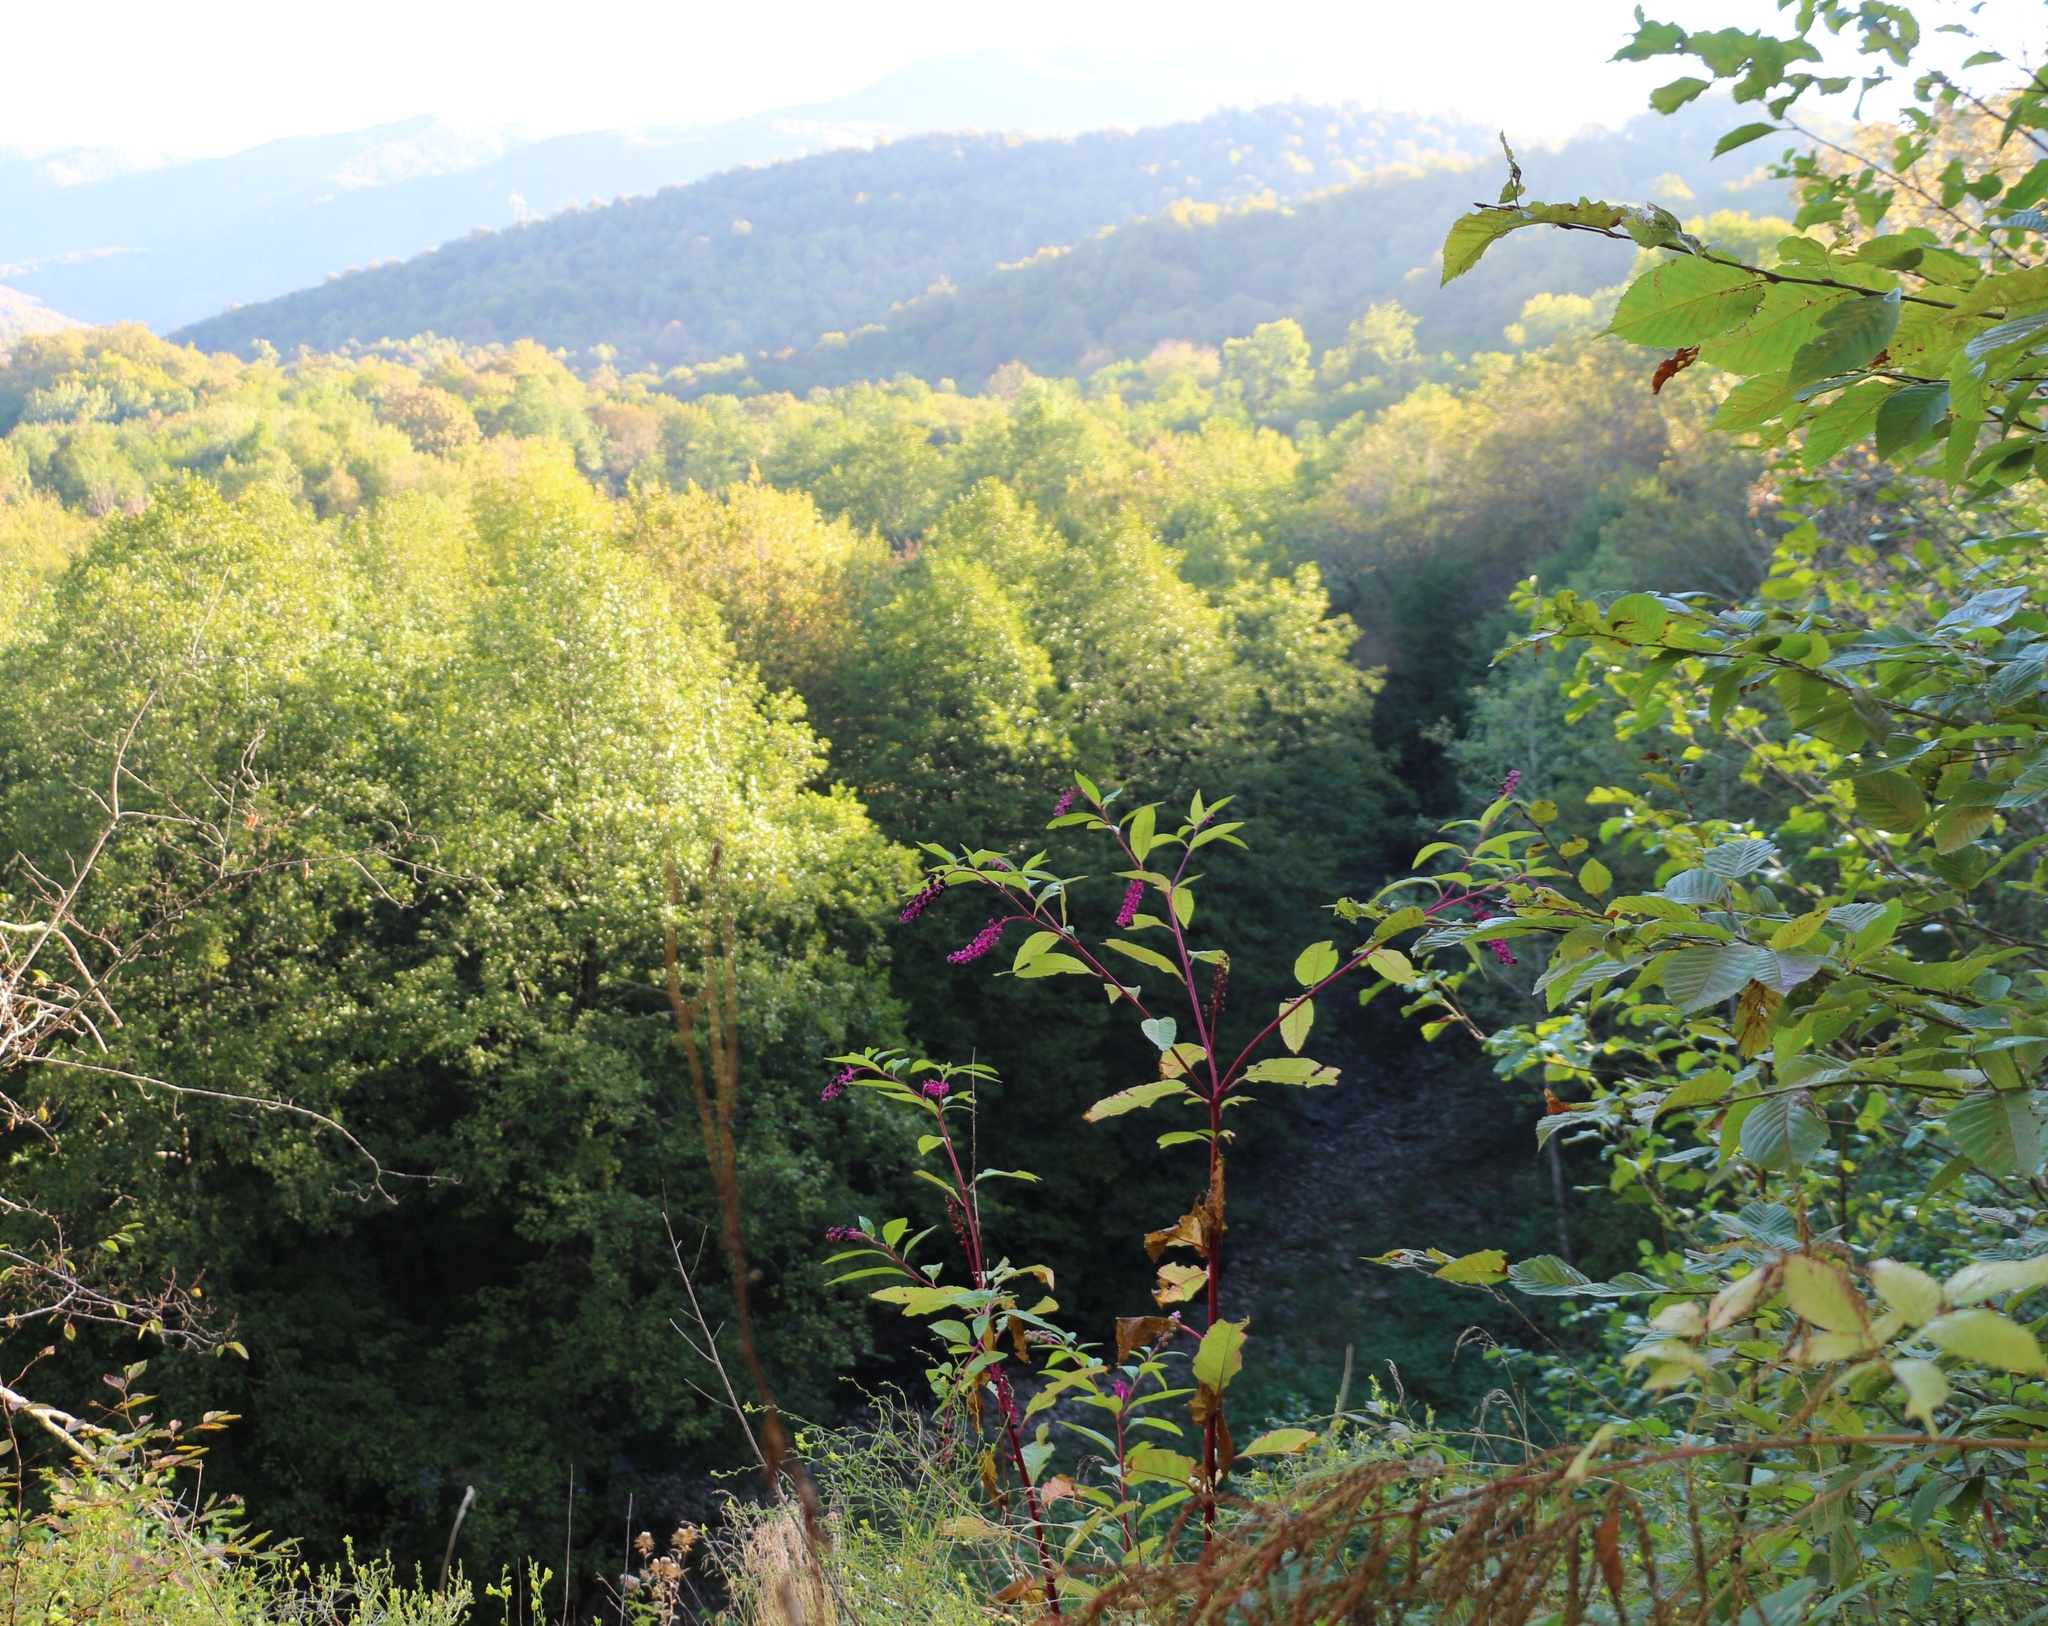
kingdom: Plantae
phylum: Tracheophyta
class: Magnoliopsida
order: Caryophyllales
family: Phytolaccaceae
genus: Phytolacca
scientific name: Phytolacca americana
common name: American pokeweed
